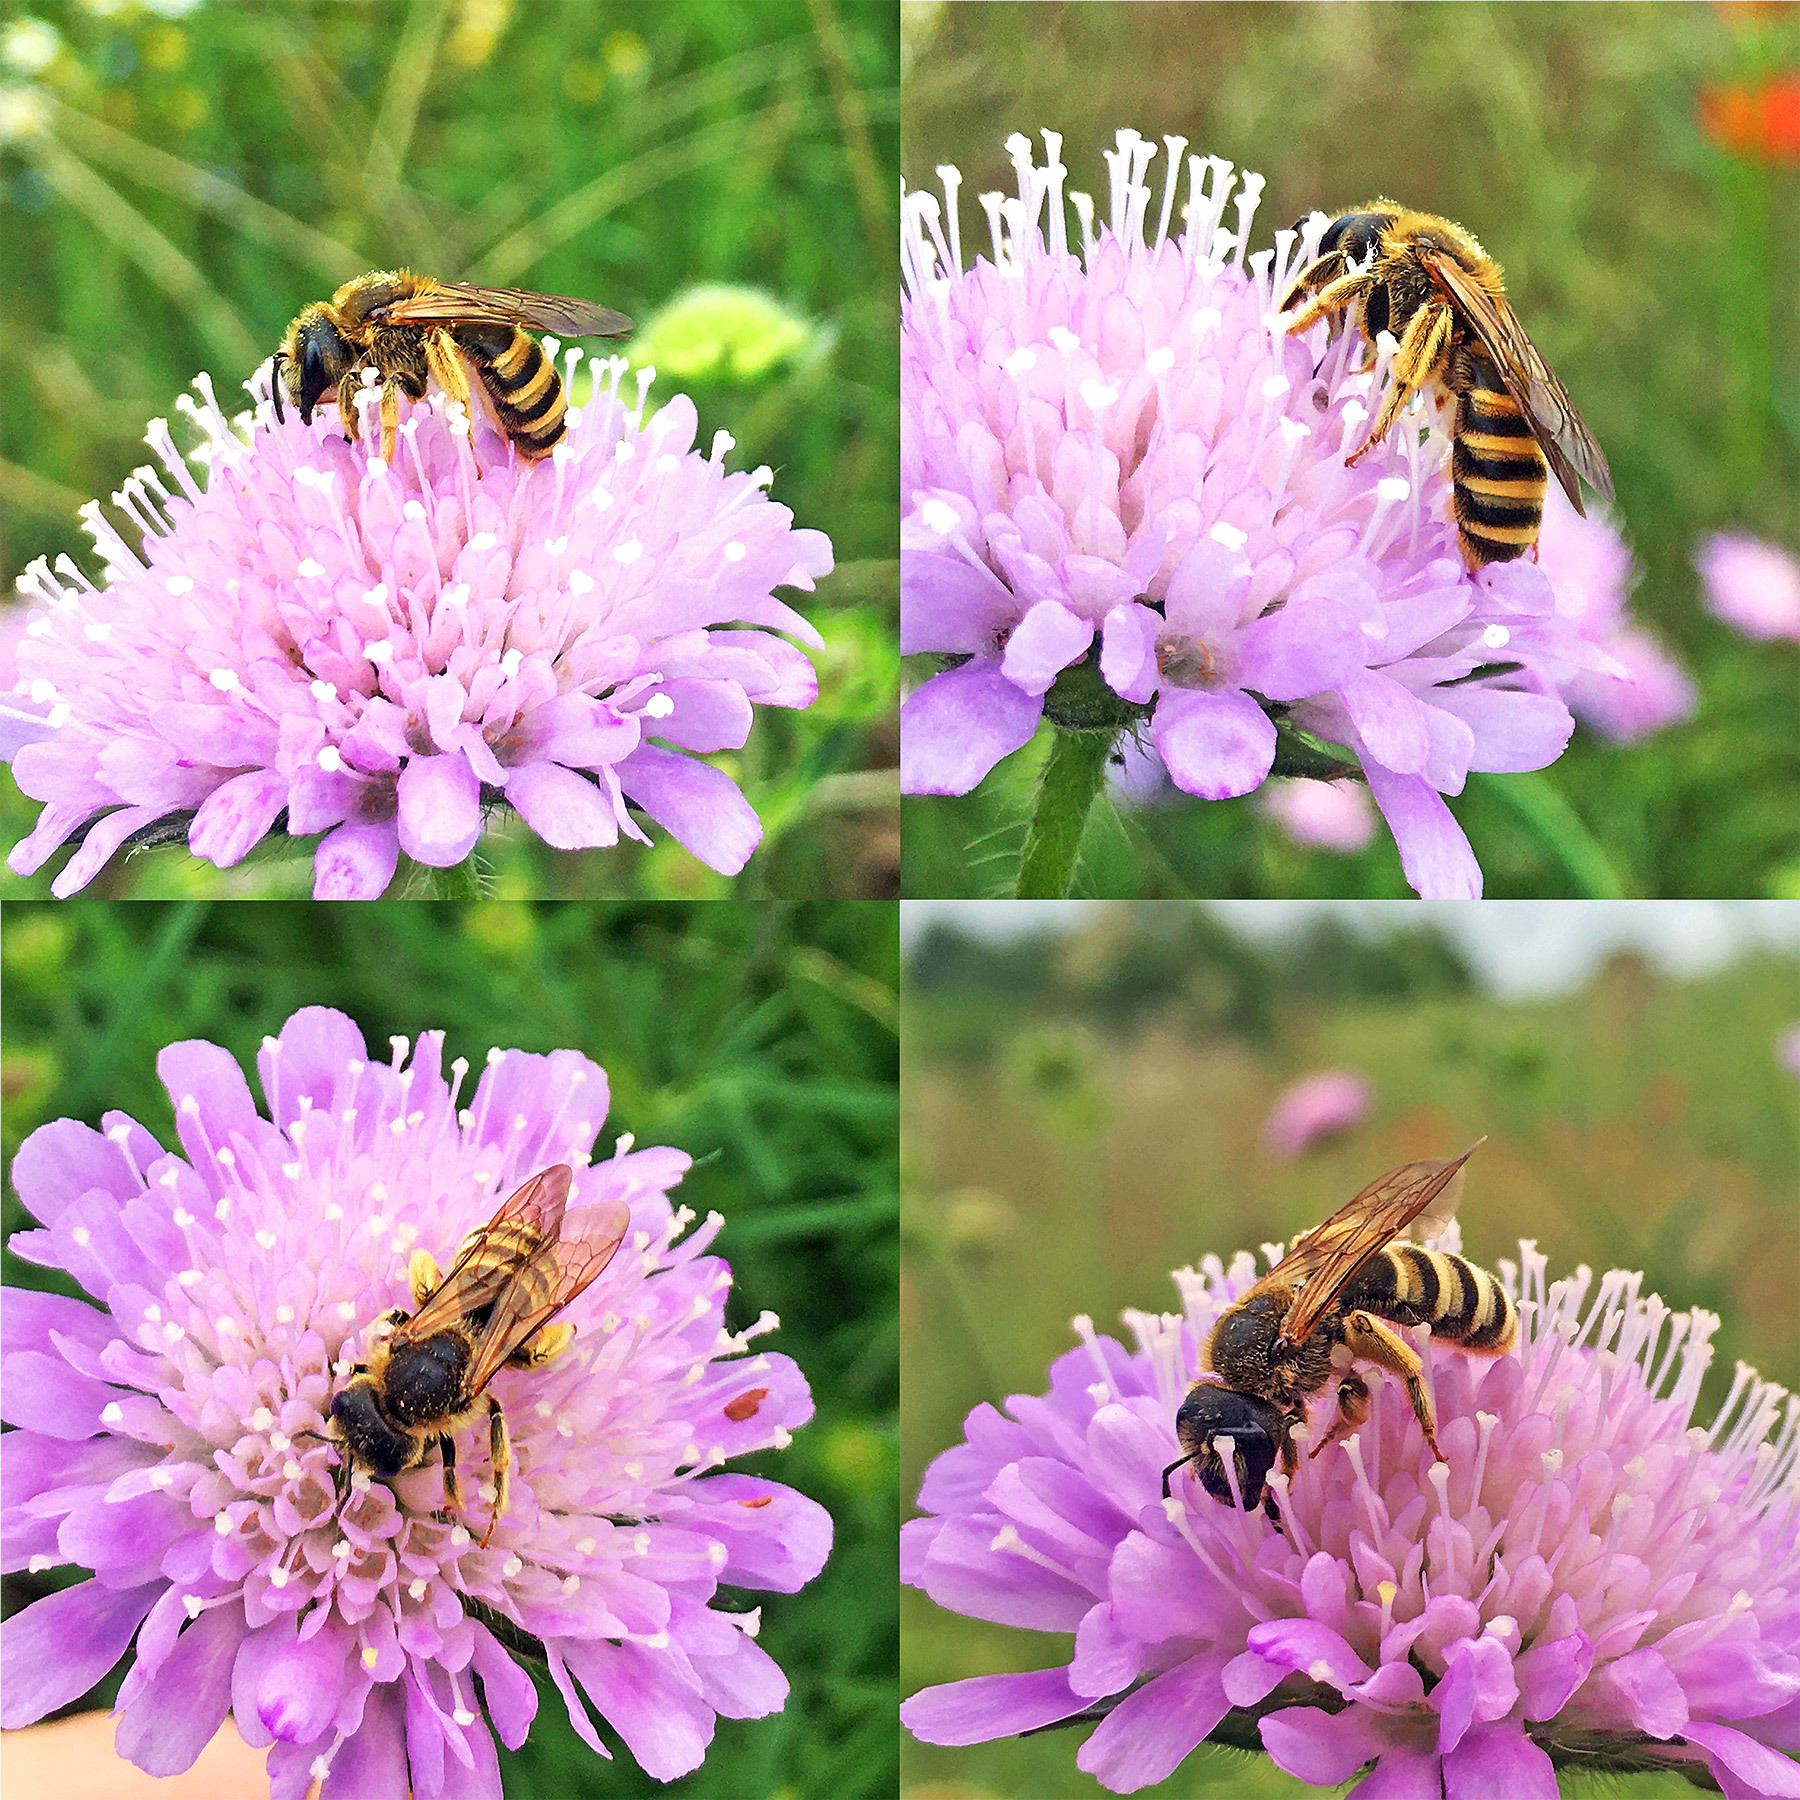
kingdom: Animalia
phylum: Arthropoda
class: Insecta
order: Hymenoptera
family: Halictidae
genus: Halictus
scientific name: Halictus scabiosae
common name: Great banded furrow bee
